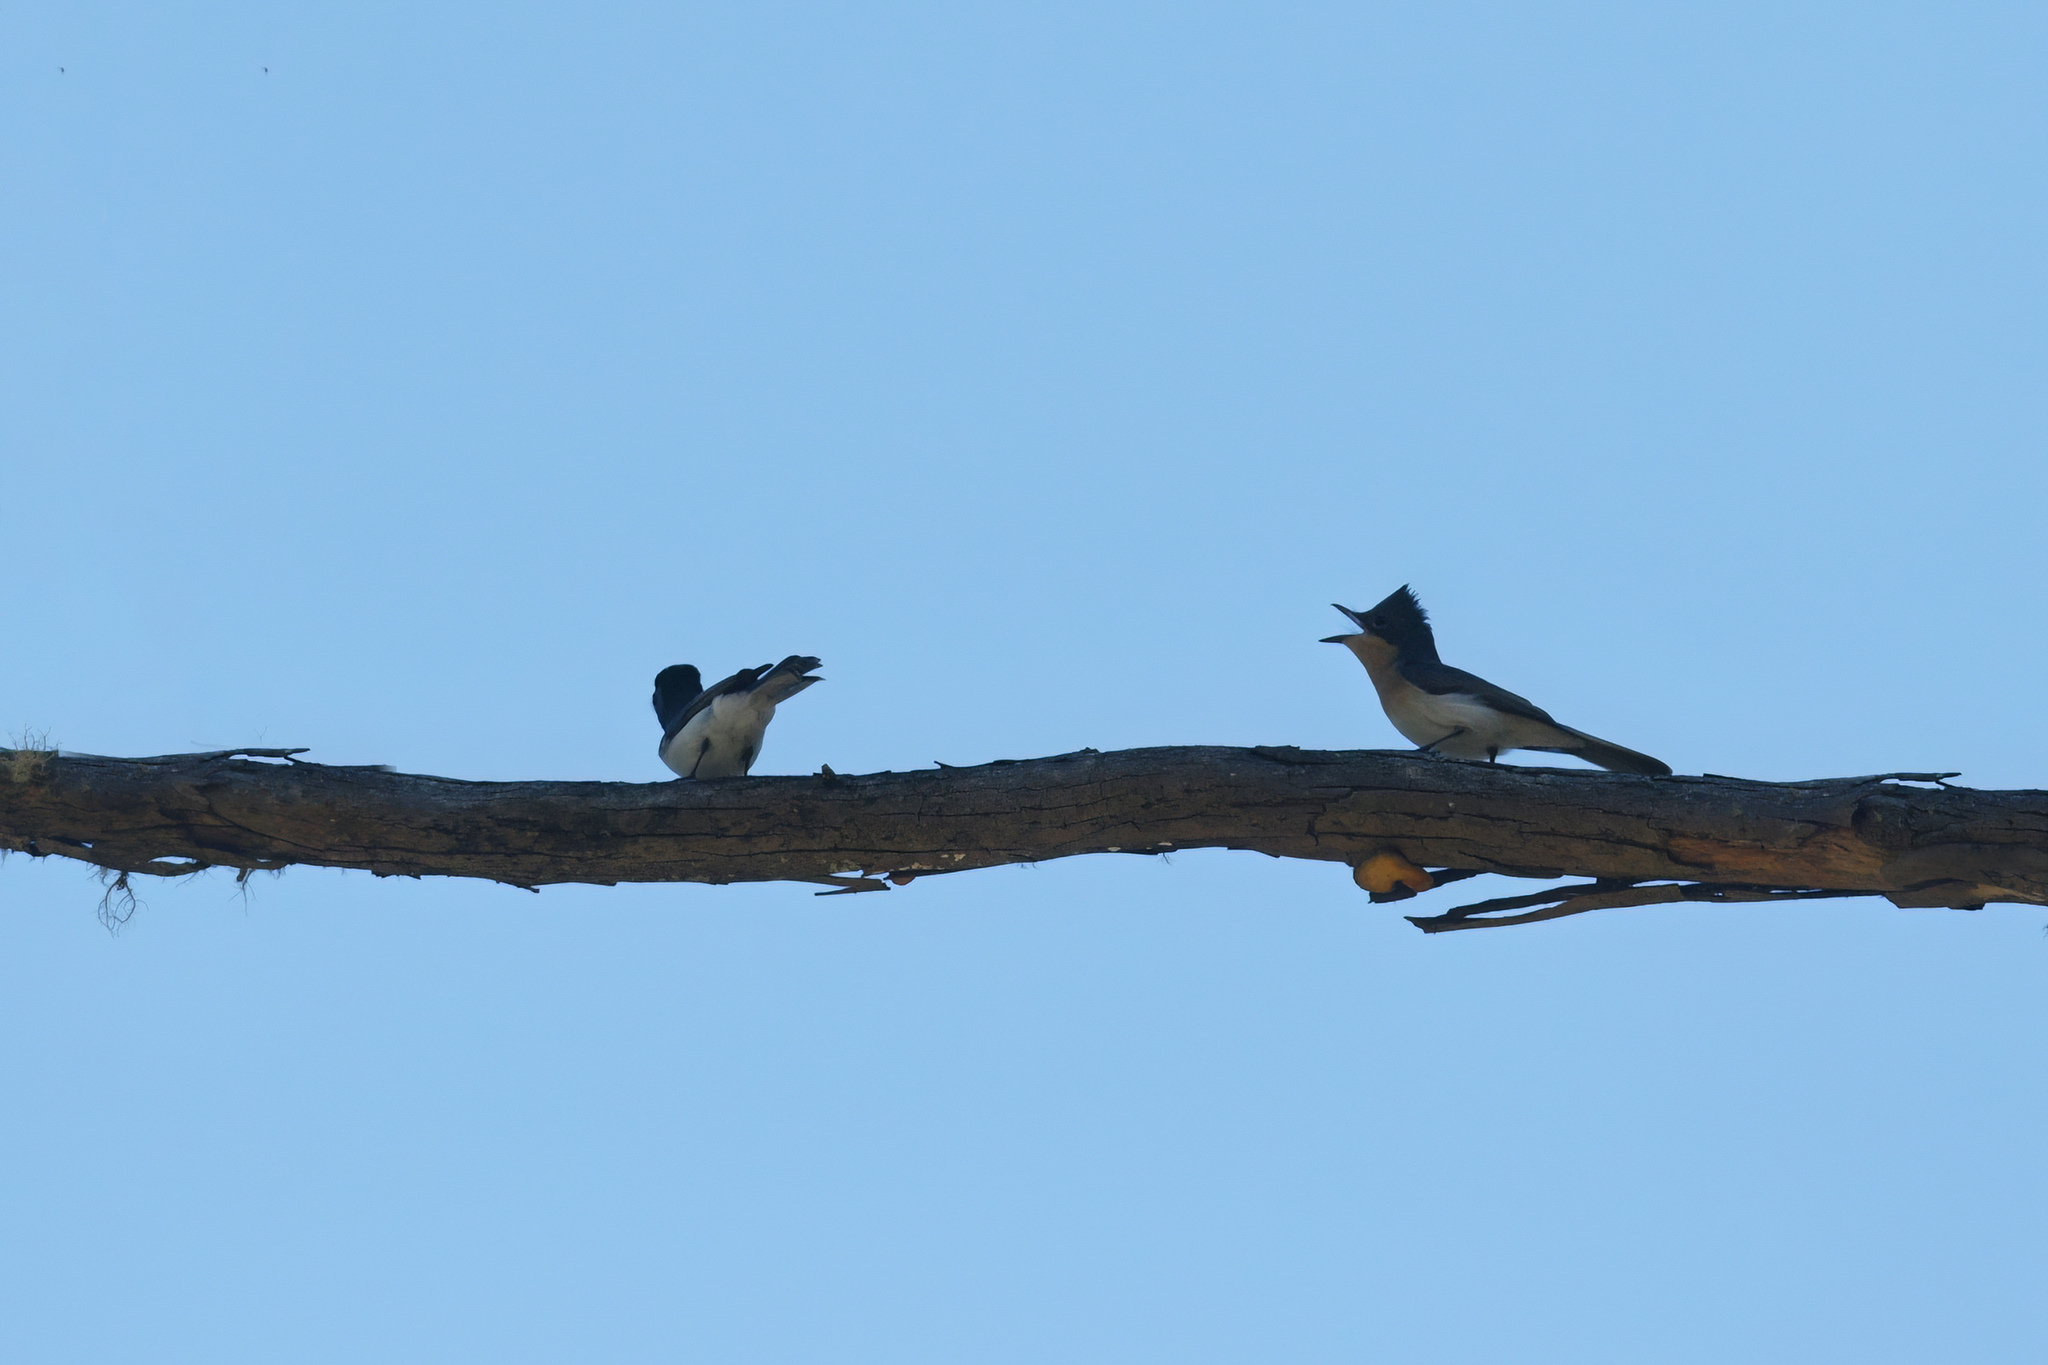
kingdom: Animalia
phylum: Chordata
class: Aves
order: Passeriformes
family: Monarchidae
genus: Myiagra
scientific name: Myiagra rubecula
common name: Leaden flycatcher
